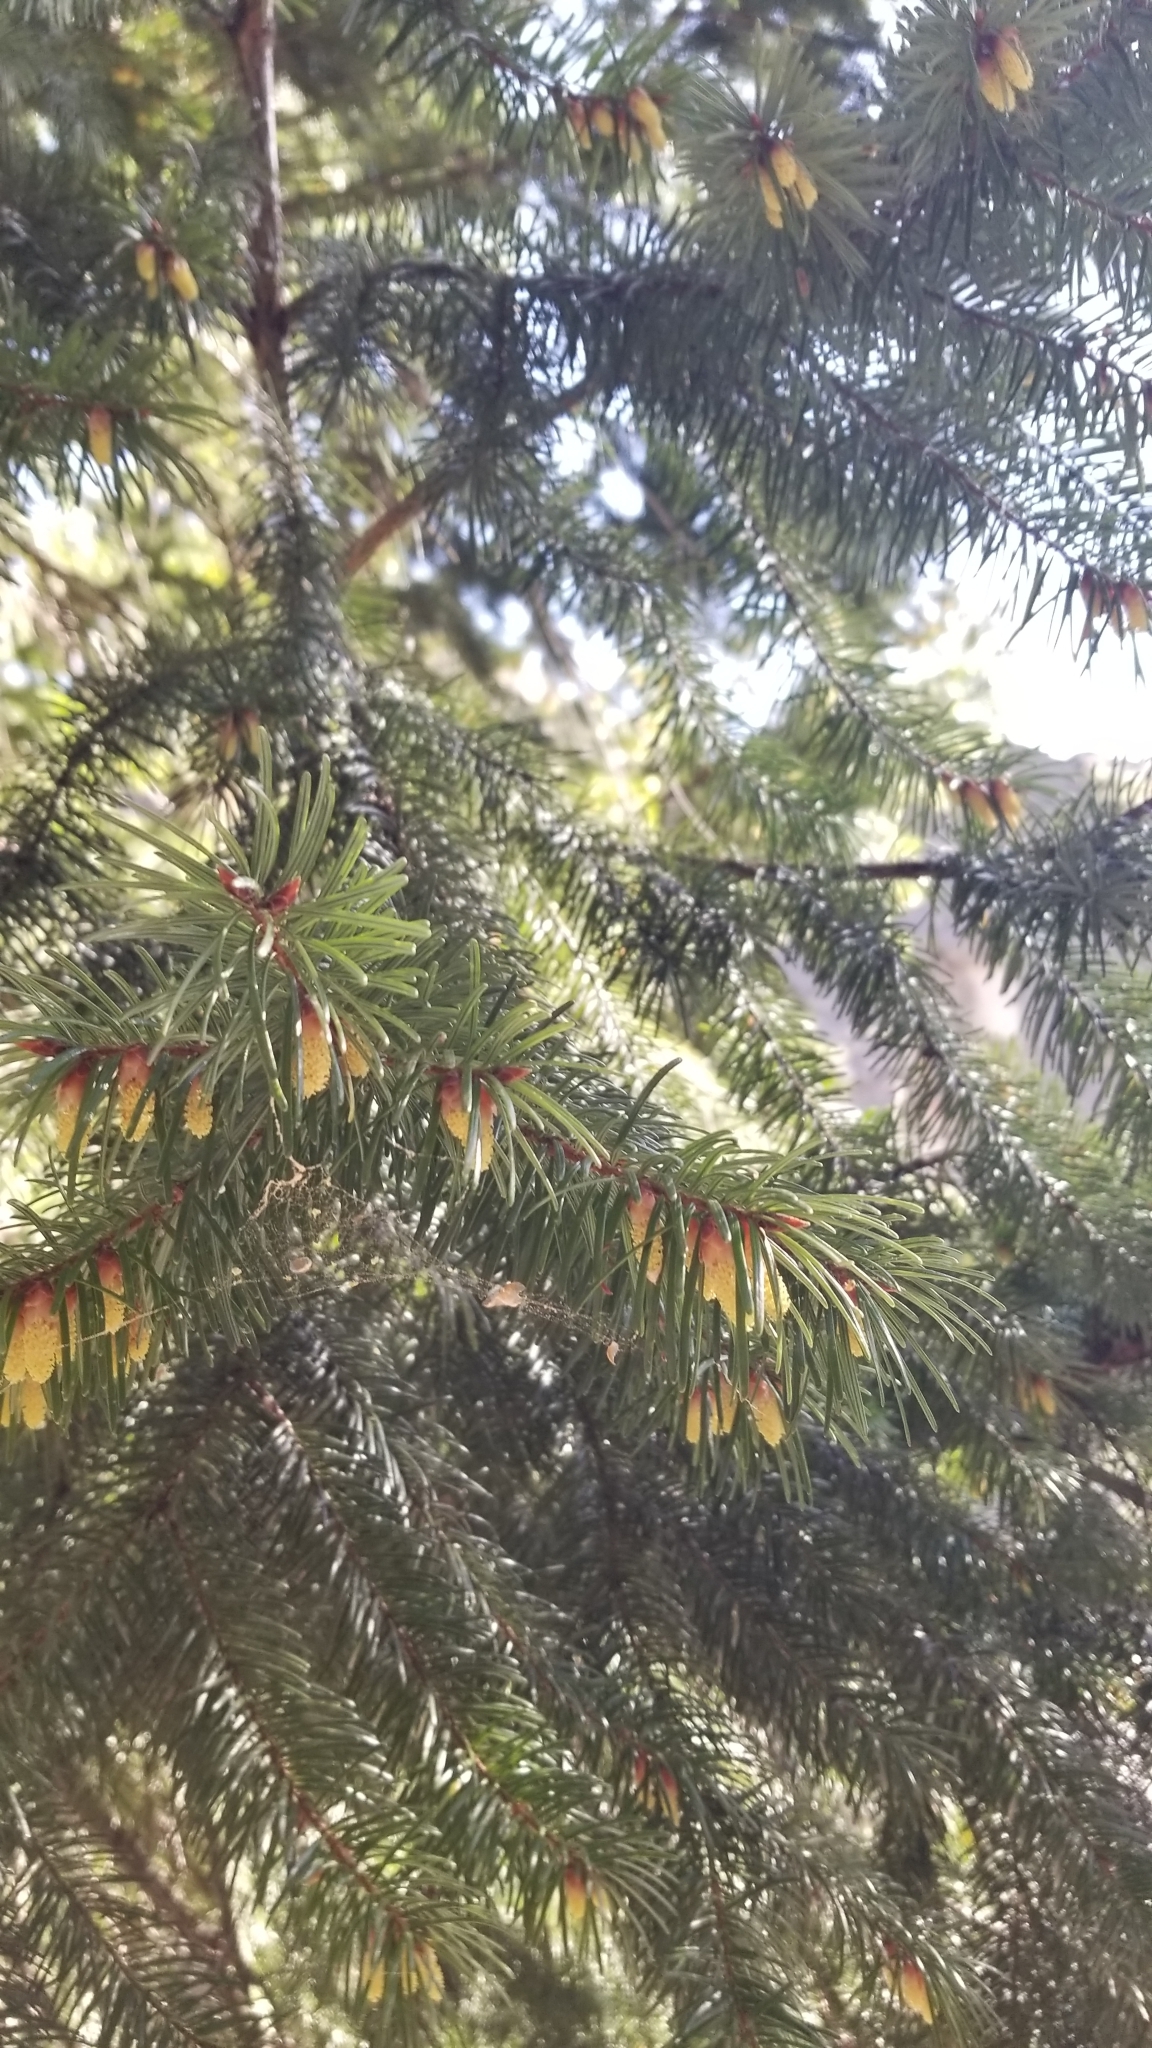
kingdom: Plantae
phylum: Tracheophyta
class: Pinopsida
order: Pinales
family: Pinaceae
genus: Pseudotsuga
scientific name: Pseudotsuga menziesii
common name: Douglas fir
